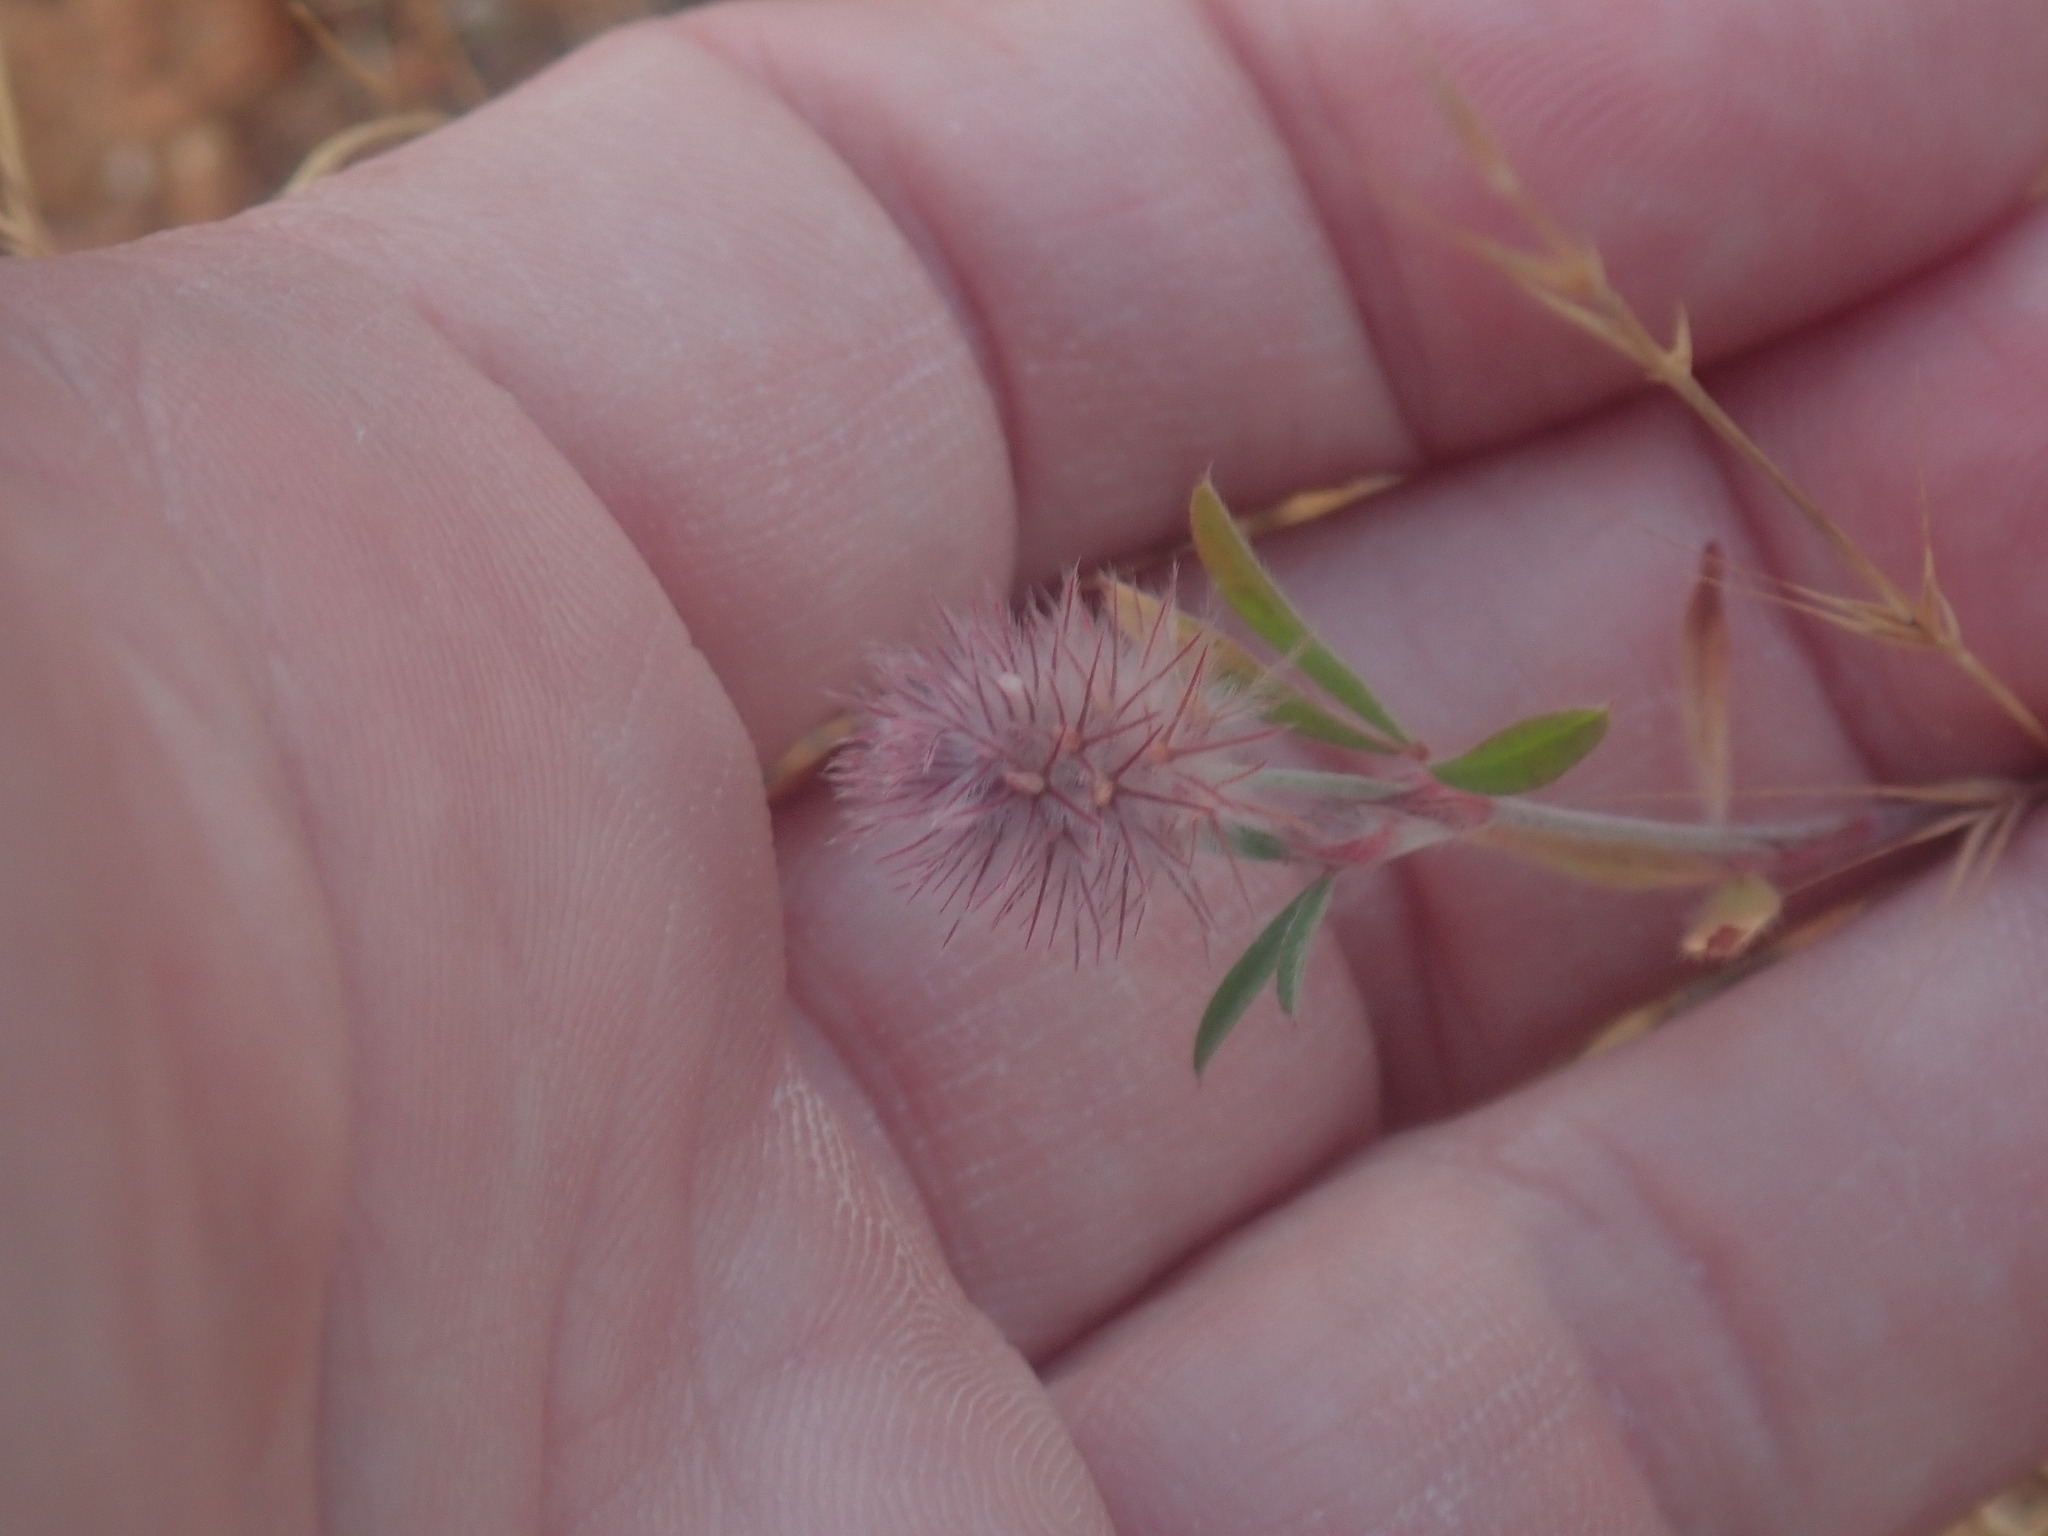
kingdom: Plantae
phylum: Tracheophyta
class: Magnoliopsida
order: Fabales
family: Fabaceae
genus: Trifolium
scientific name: Trifolium arvense
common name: Hare's-foot clover
